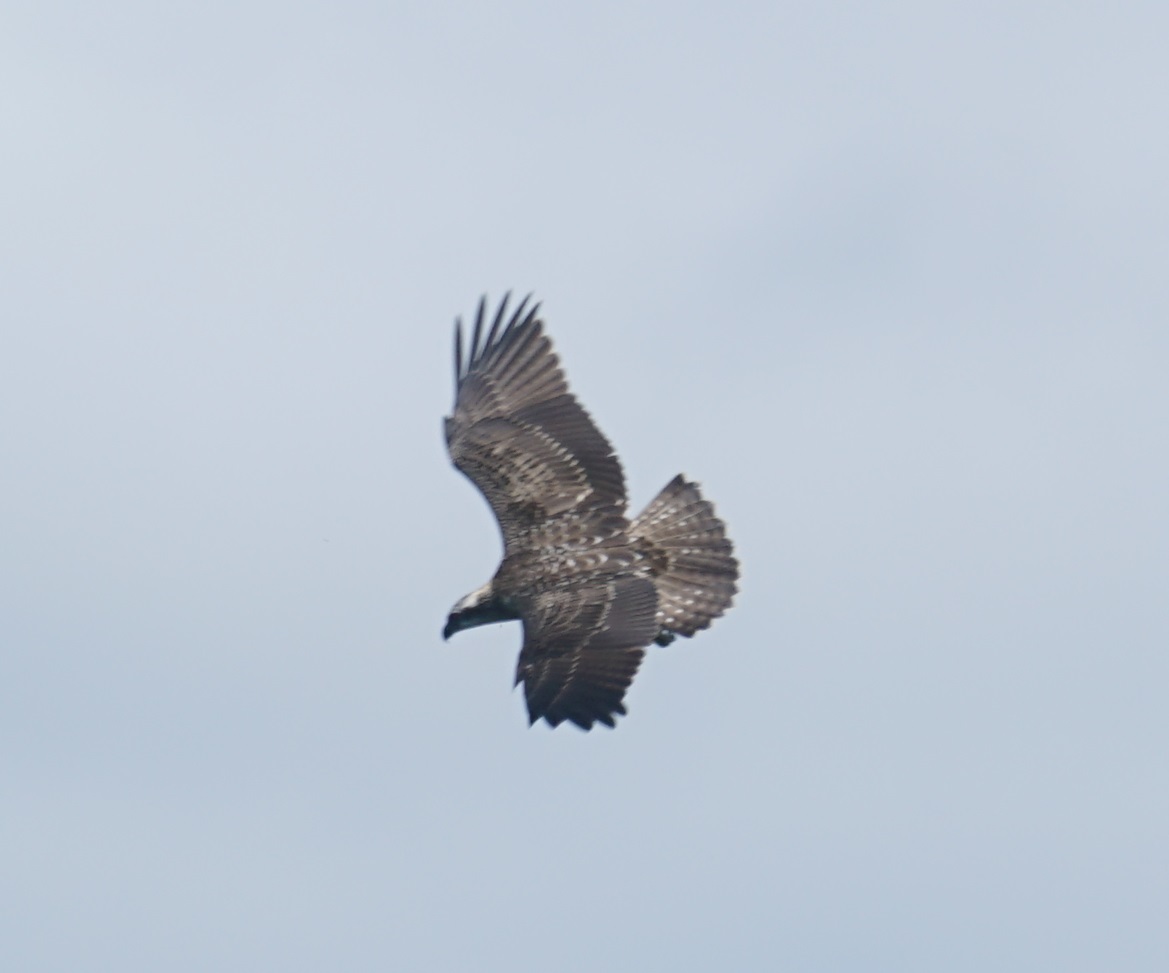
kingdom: Animalia
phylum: Chordata
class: Aves
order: Accipitriformes
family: Pandionidae
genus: Pandion
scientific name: Pandion haliaetus
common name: Osprey
